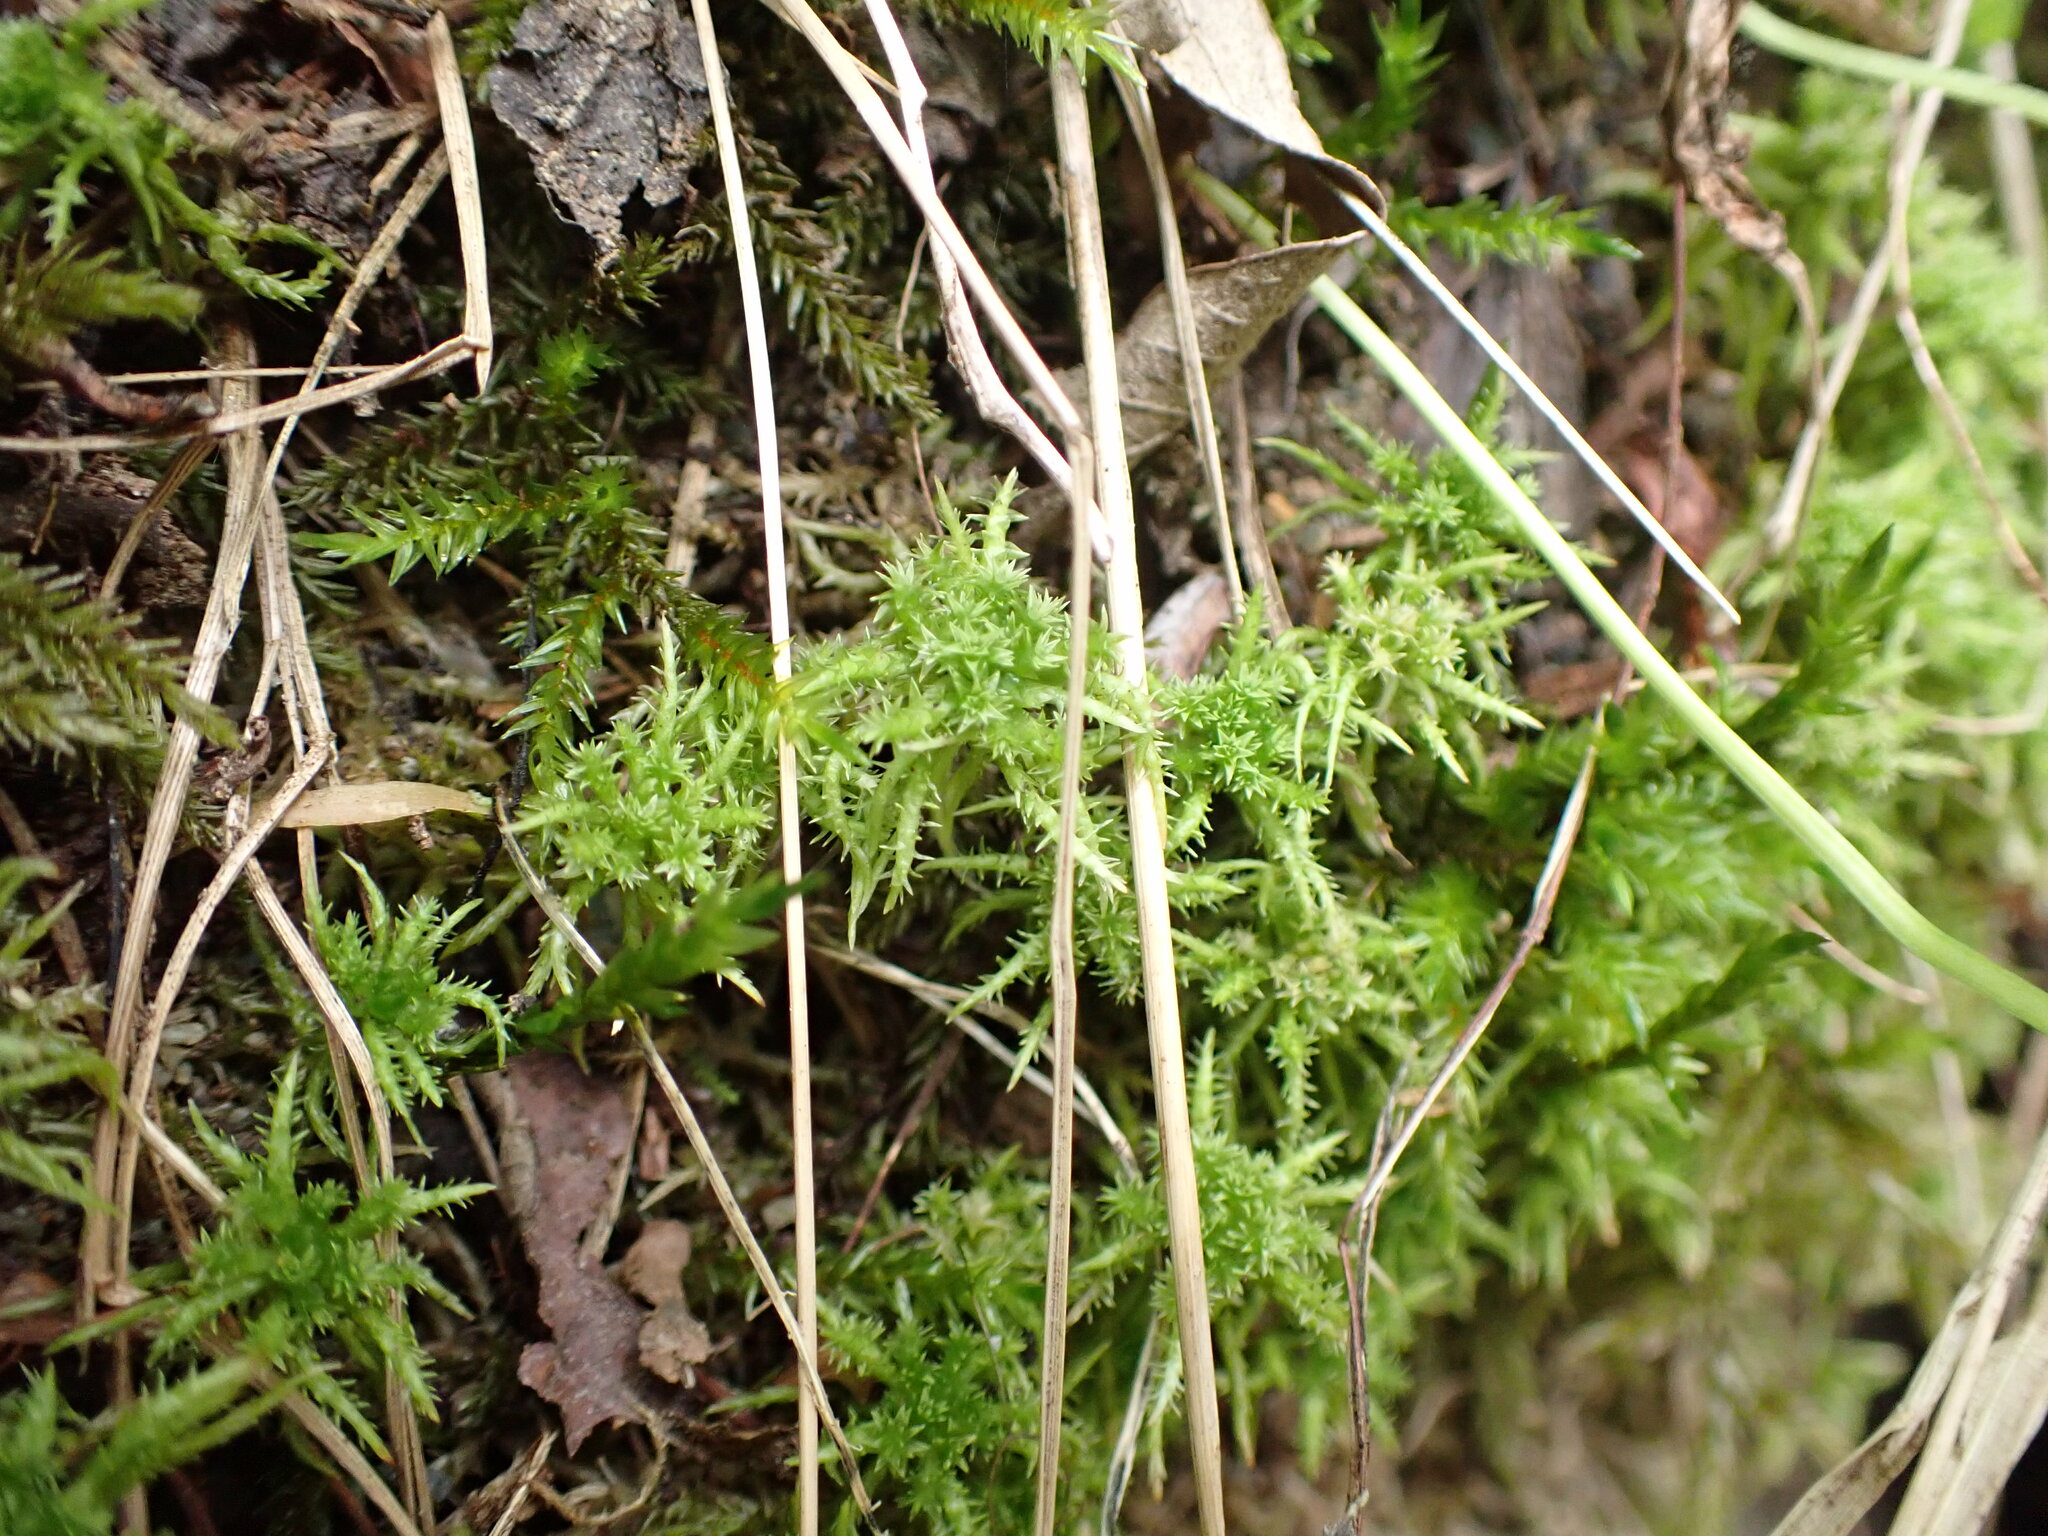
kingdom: Plantae
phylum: Bryophyta
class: Sphagnopsida
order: Sphagnales
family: Sphagnaceae
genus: Sphagnum
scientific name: Sphagnum squarrosum
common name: Shaggy peat moss
